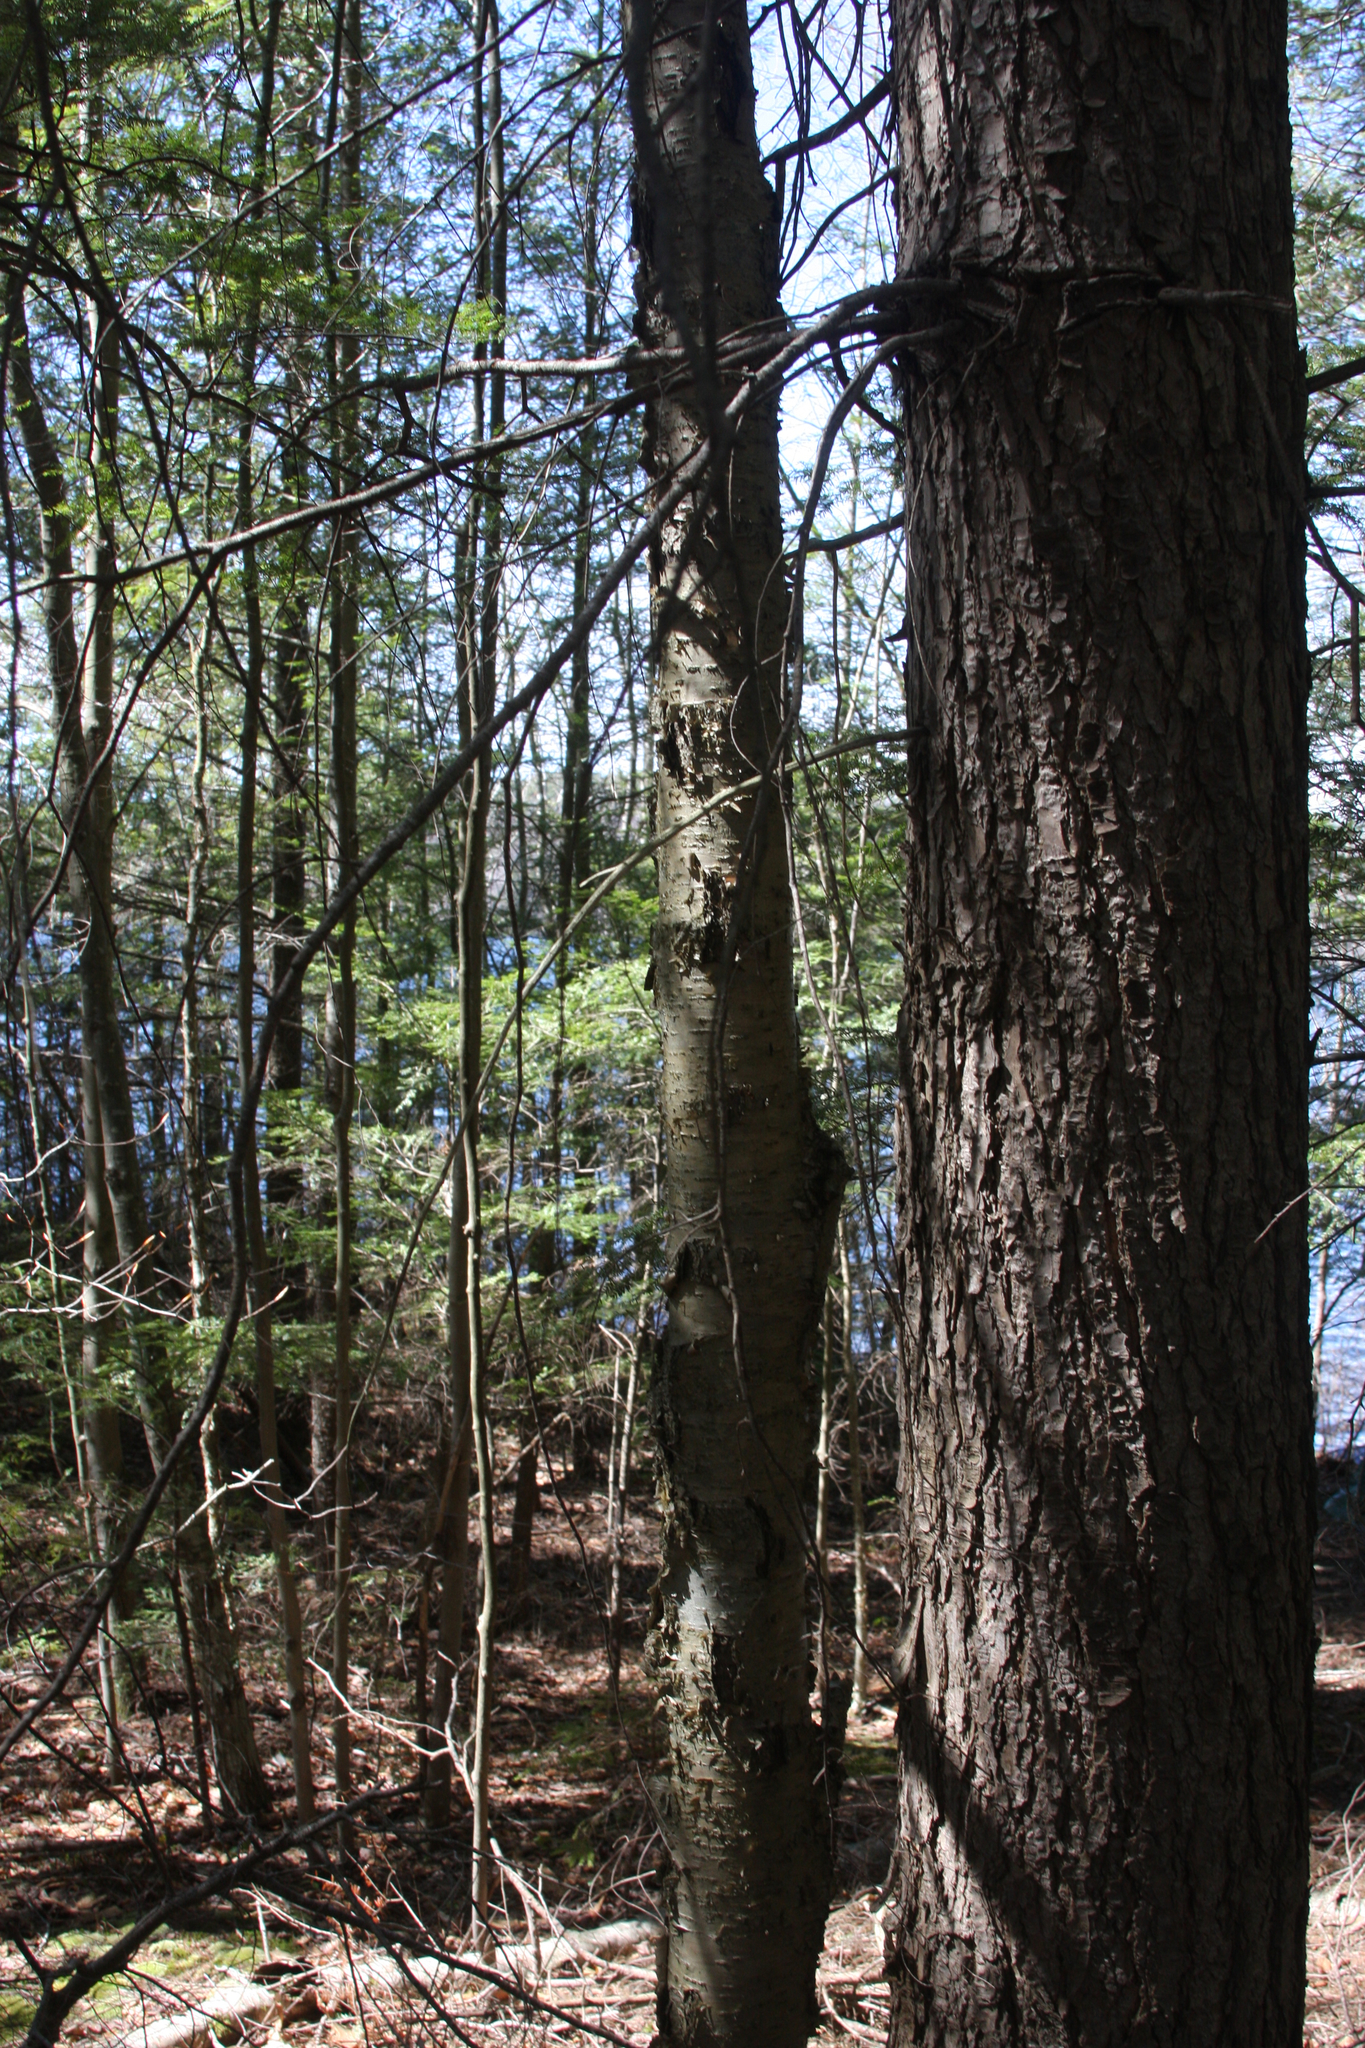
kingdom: Plantae
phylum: Tracheophyta
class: Magnoliopsida
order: Fagales
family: Betulaceae
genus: Betula
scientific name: Betula alleghaniensis
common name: Yellow birch
